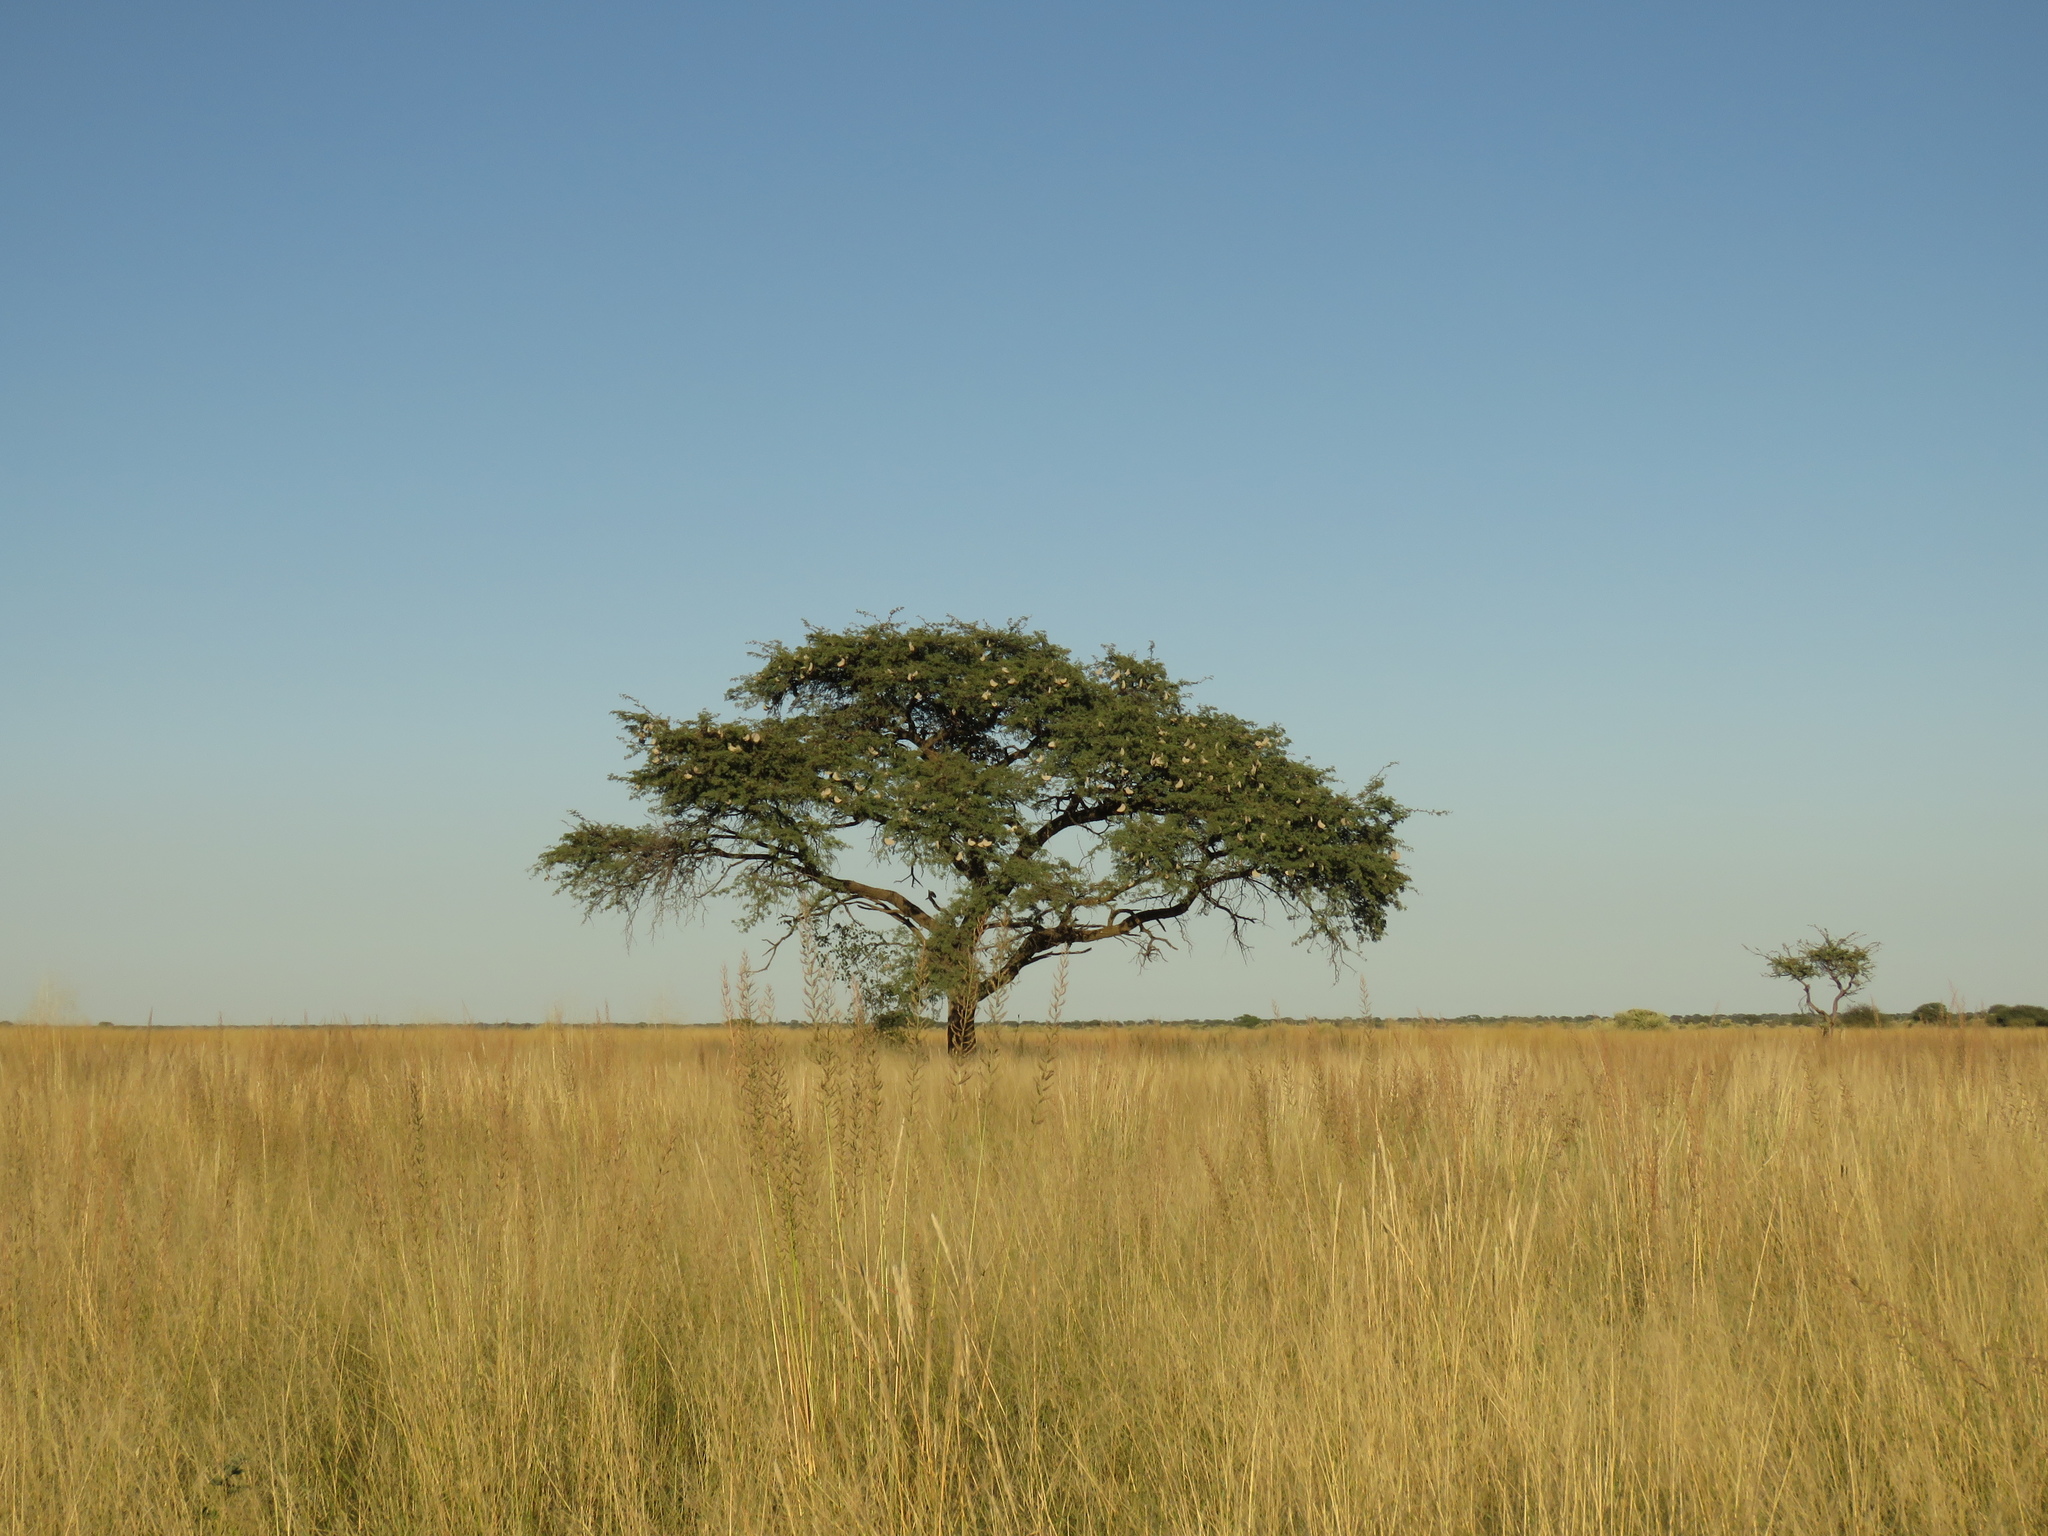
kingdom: Plantae
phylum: Tracheophyta
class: Magnoliopsida
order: Fabales
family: Fabaceae
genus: Vachellia
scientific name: Vachellia erioloba
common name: Camel thorn
